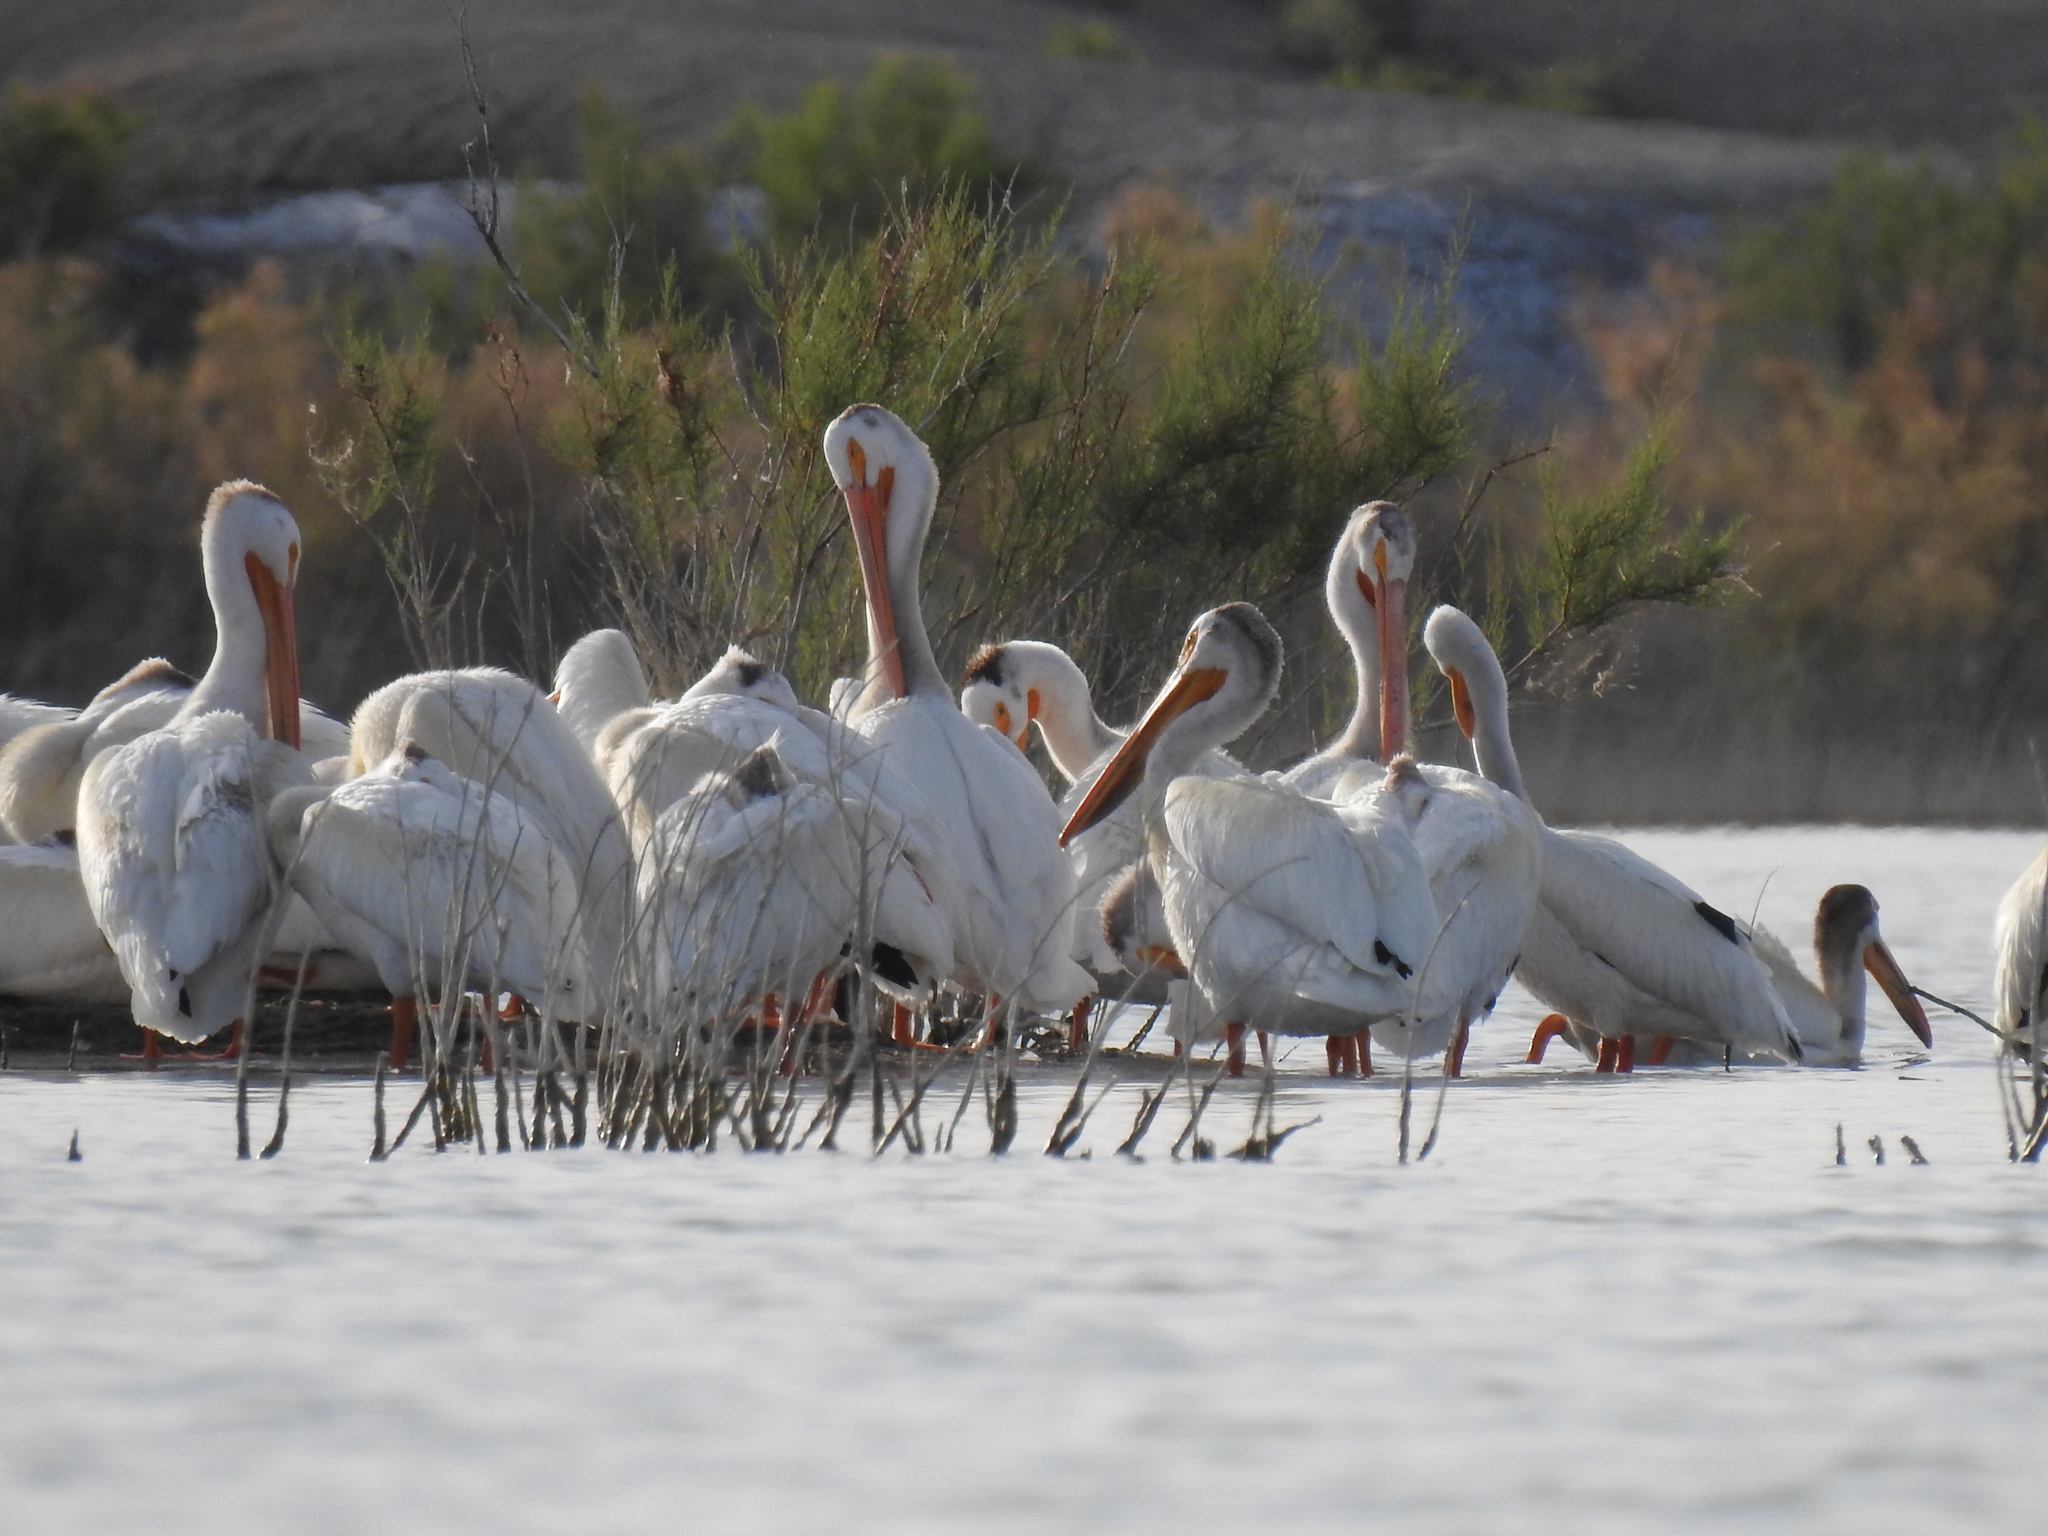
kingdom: Animalia
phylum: Chordata
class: Aves
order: Pelecaniformes
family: Pelecanidae
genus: Pelecanus
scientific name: Pelecanus erythrorhynchos
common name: American white pelican
